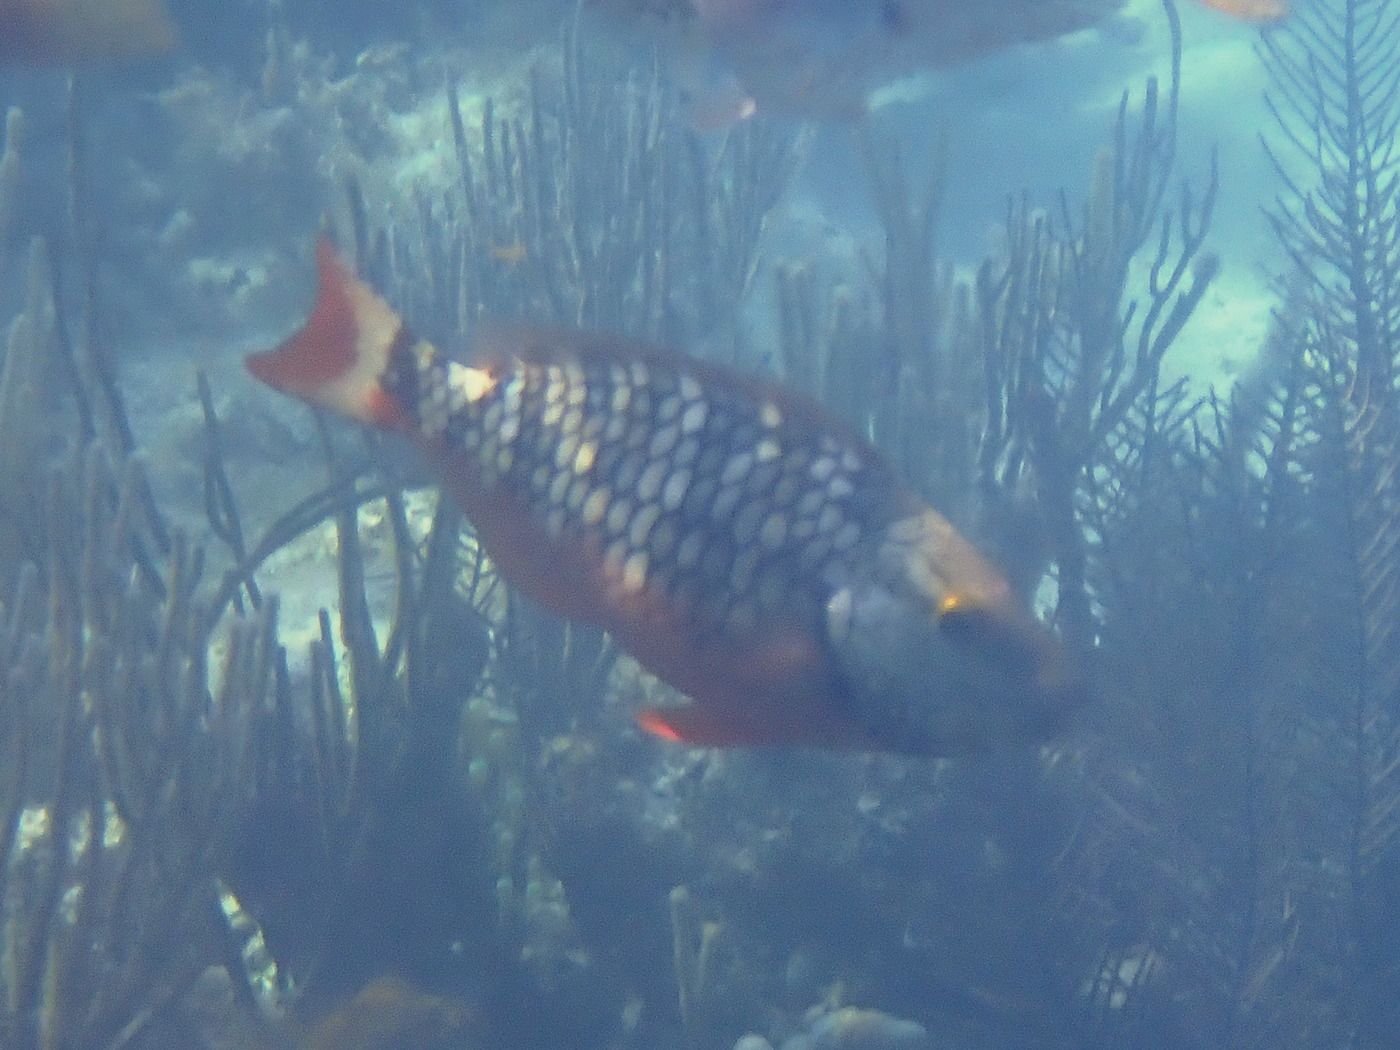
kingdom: Animalia
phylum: Chordata
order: Perciformes
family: Scaridae
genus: Sparisoma
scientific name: Sparisoma viride
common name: Stoplight parrotfish
